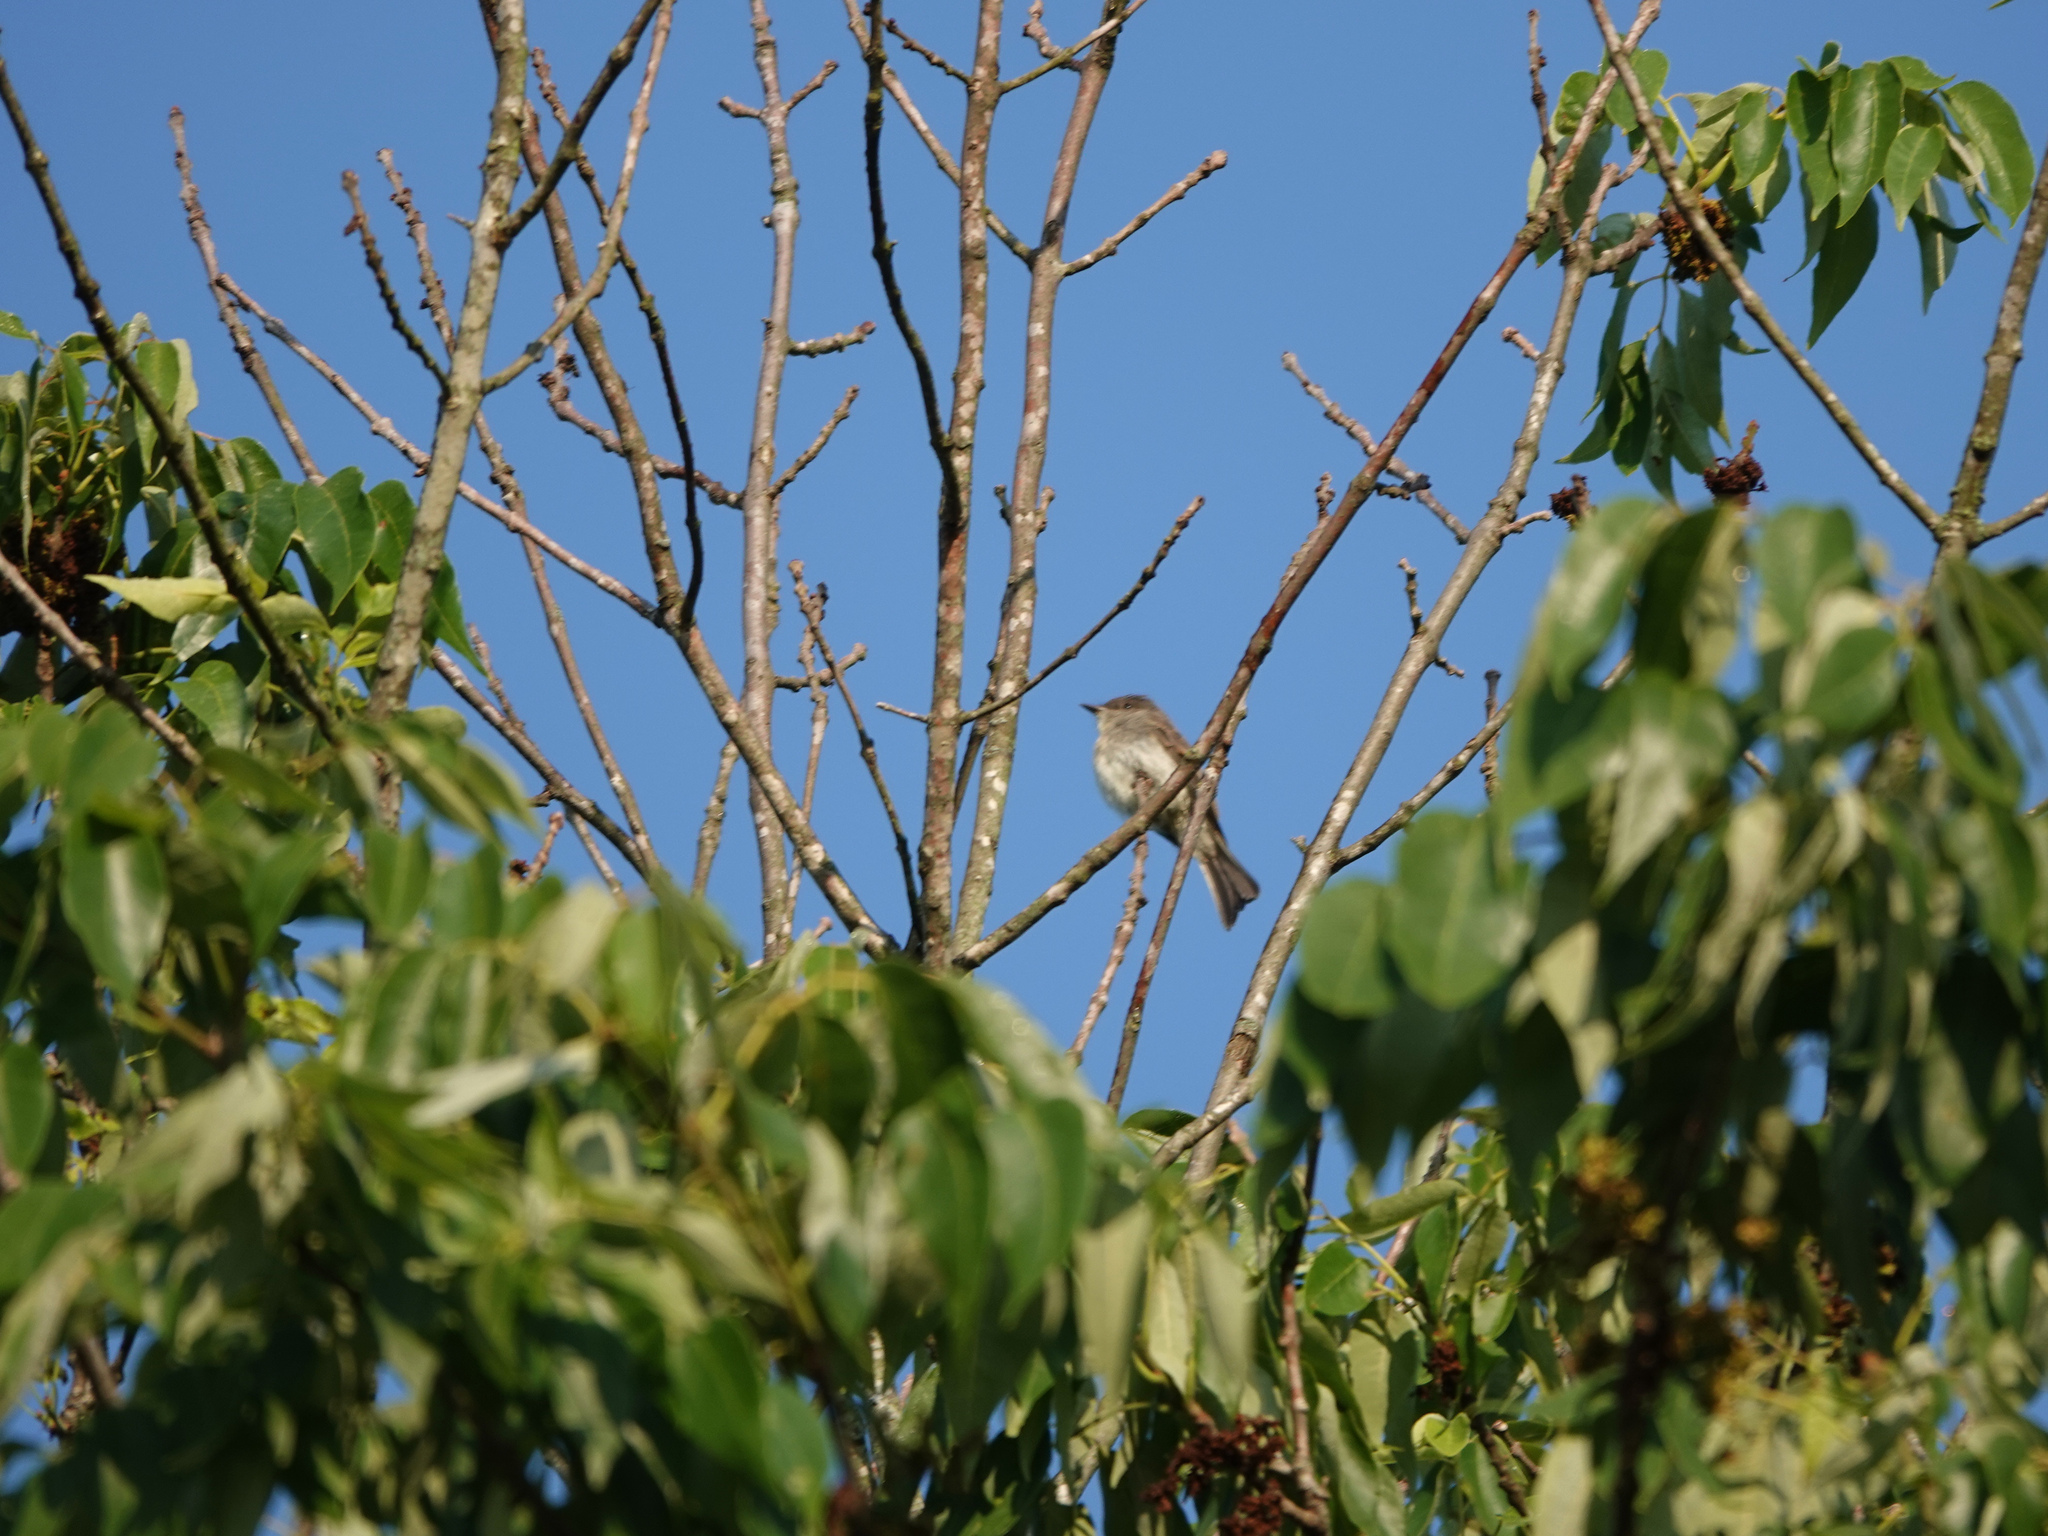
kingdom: Animalia
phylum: Chordata
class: Aves
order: Passeriformes
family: Tyrannidae
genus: Sayornis
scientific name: Sayornis phoebe
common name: Eastern phoebe
